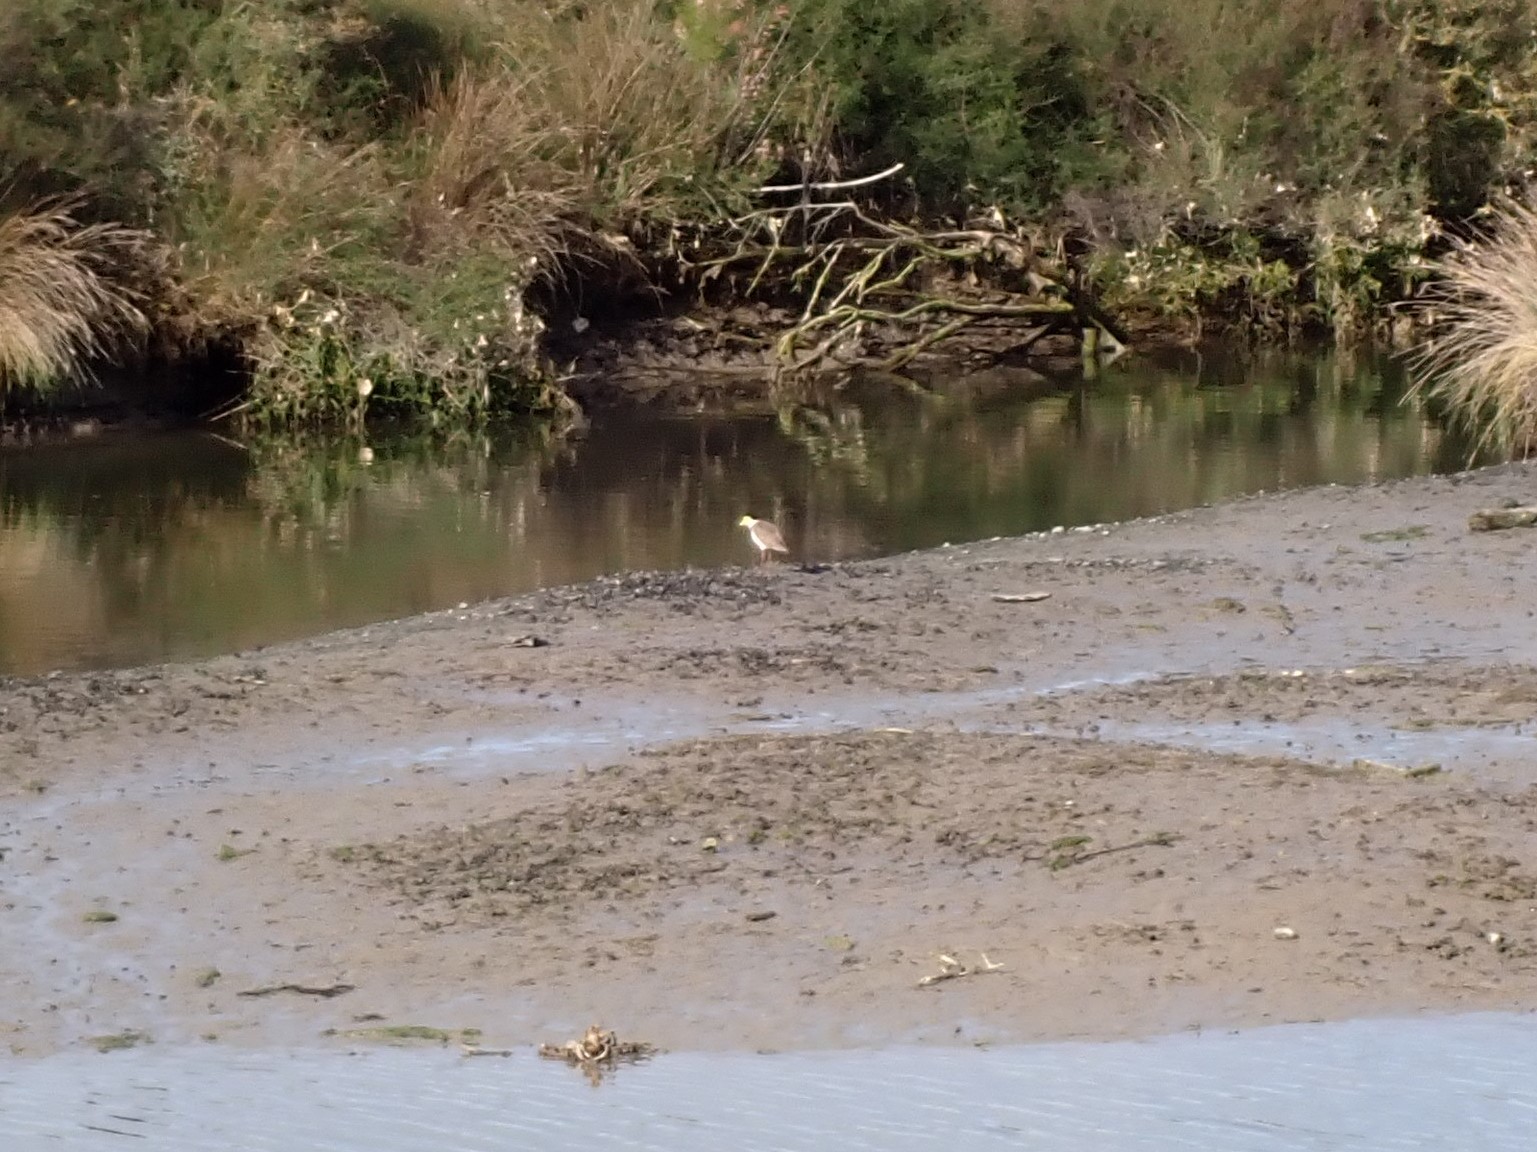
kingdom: Animalia
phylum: Chordata
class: Aves
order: Charadriiformes
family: Charadriidae
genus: Vanellus
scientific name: Vanellus miles
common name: Masked lapwing
